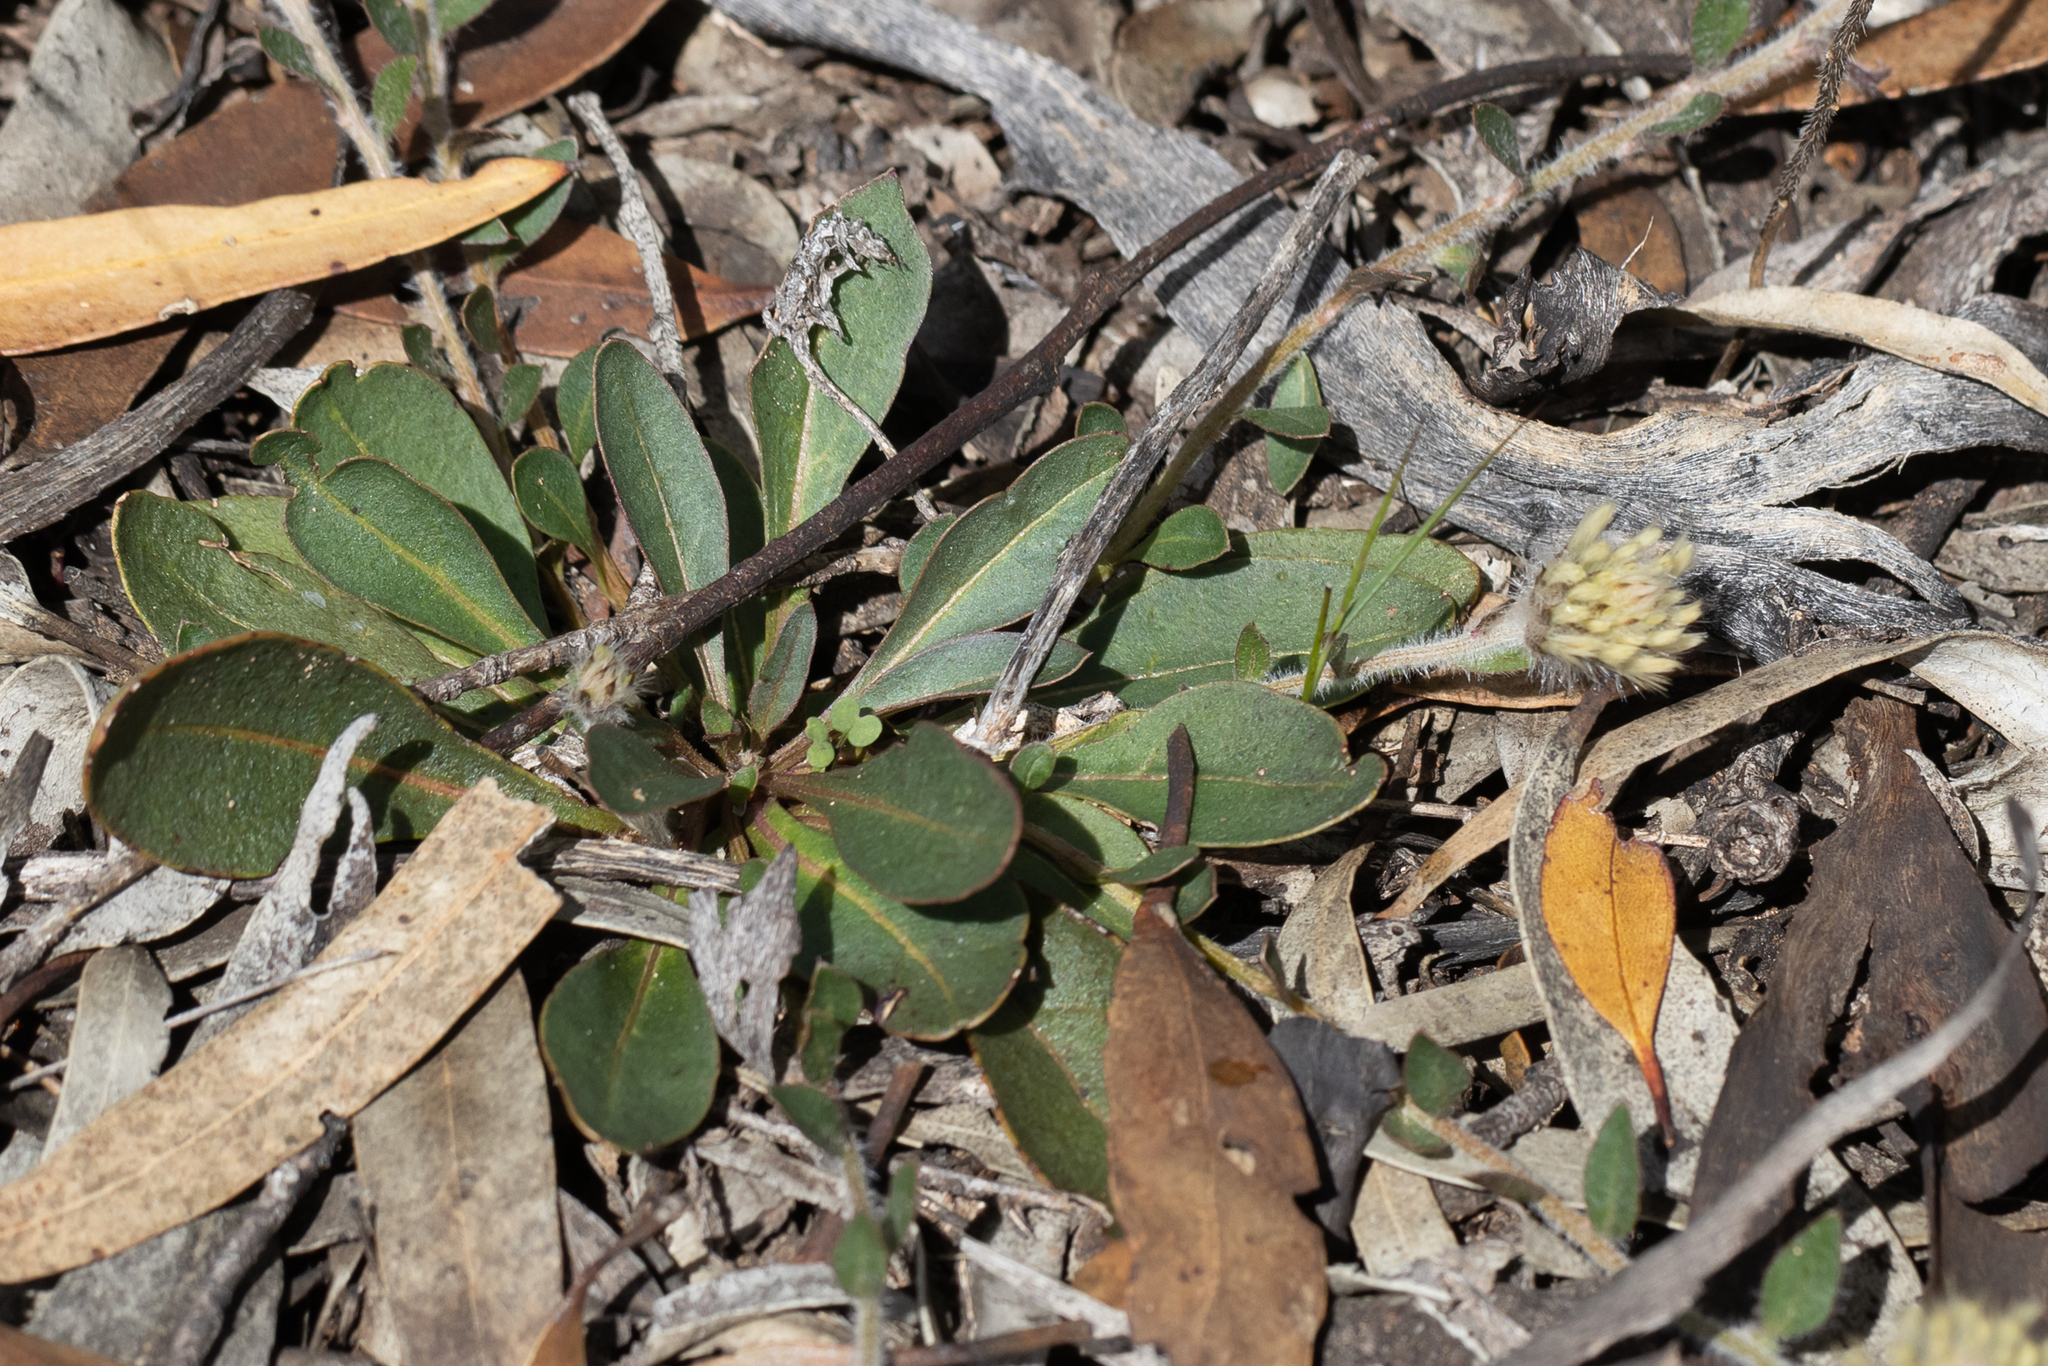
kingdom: Plantae
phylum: Tracheophyta
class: Magnoliopsida
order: Caryophyllales
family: Amaranthaceae
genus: Ptilotus
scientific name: Ptilotus seminudus
